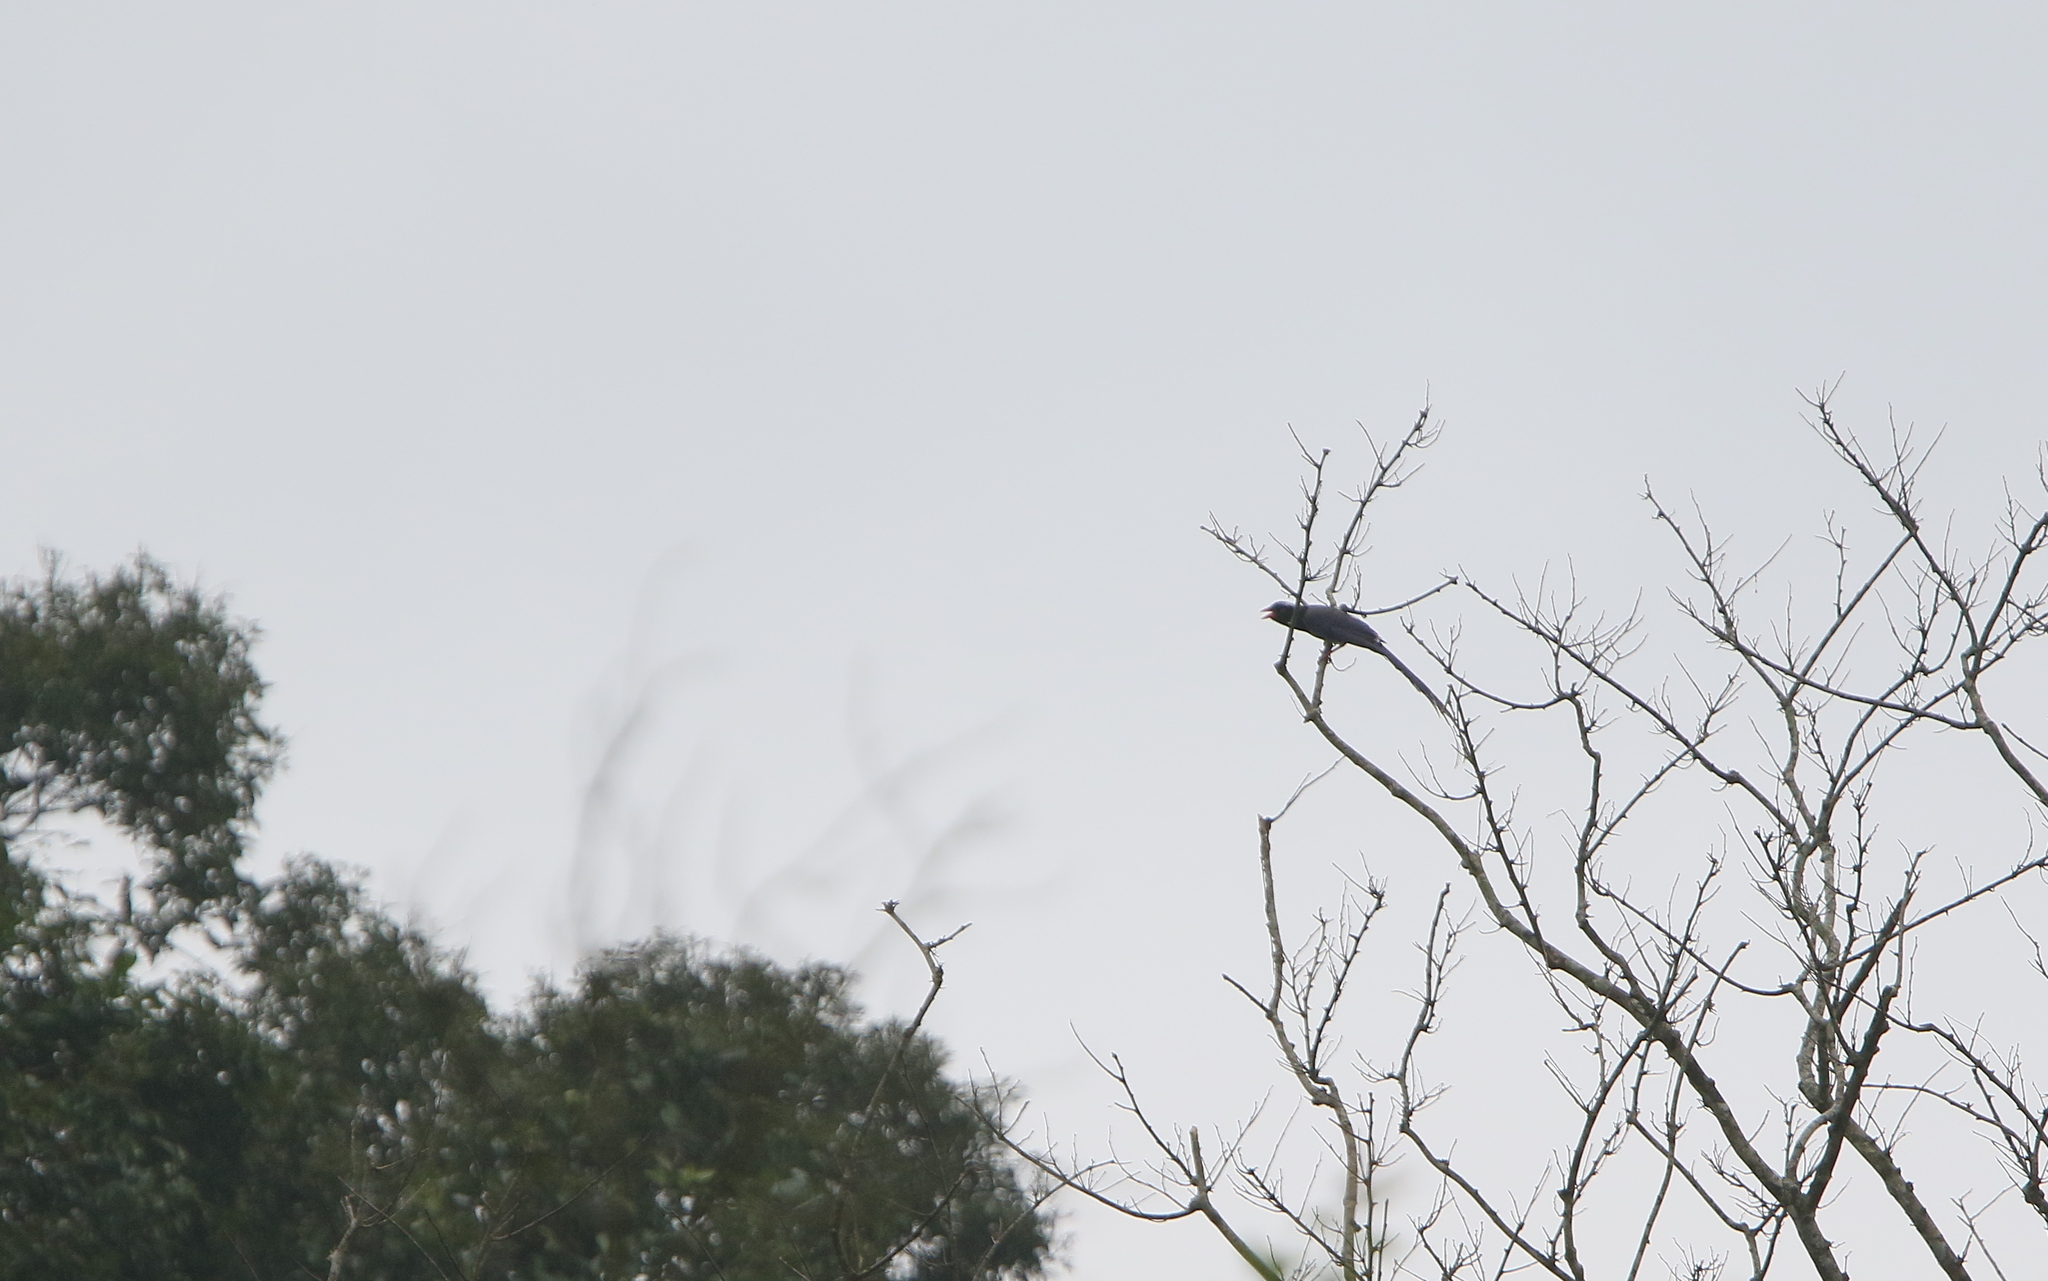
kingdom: Animalia
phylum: Chordata
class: Aves
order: Passeriformes
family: Corvidae
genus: Urocissa
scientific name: Urocissa erythroryncha
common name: Red-billed blue magpie
